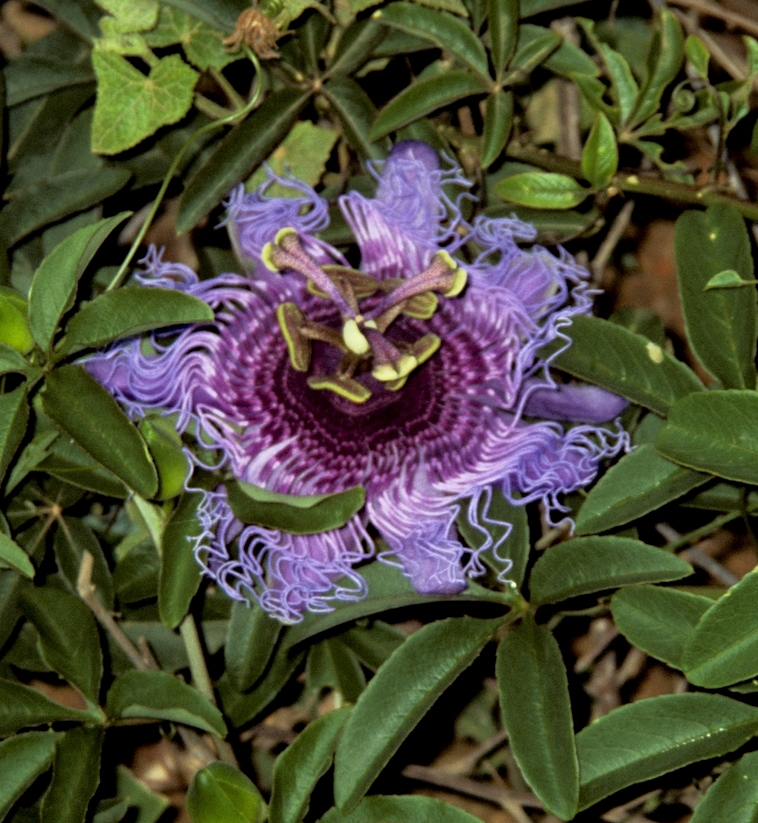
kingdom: Plantae
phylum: Tracheophyta
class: Magnoliopsida
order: Malpighiales
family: Passifloraceae
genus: Passiflora
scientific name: Passiflora cincinnata
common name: Crato passionvine
